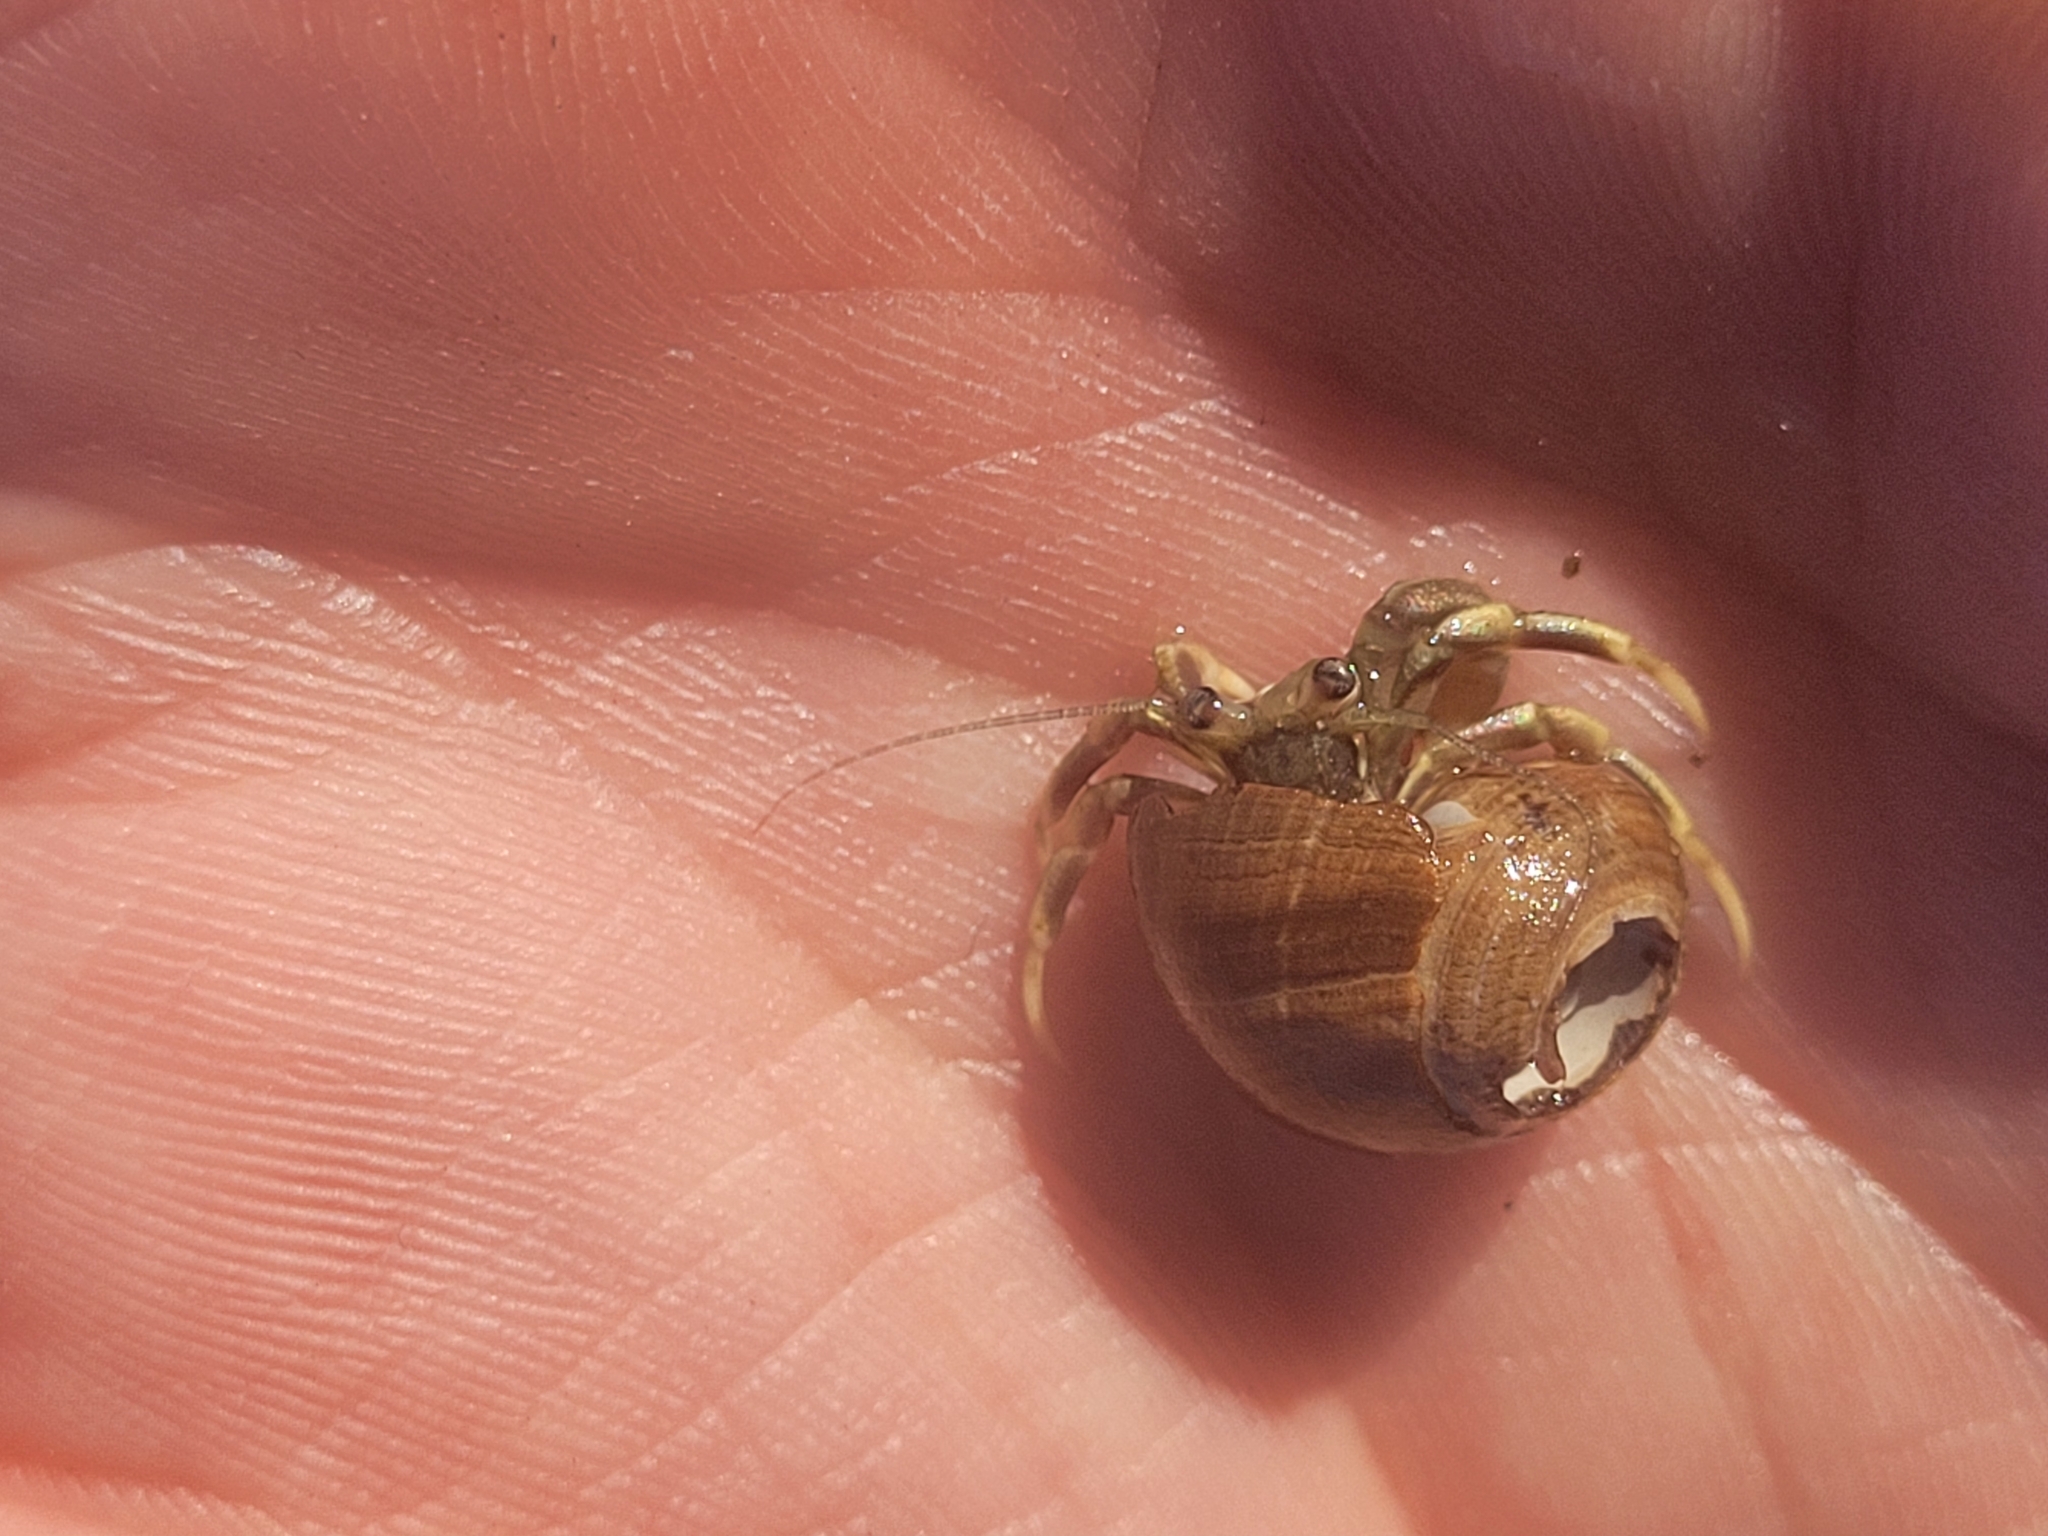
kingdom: Animalia
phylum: Arthropoda
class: Malacostraca
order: Decapoda
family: Paguridae
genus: Pagurus
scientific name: Pagurus longicarpus
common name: Long-armed hermit crab
